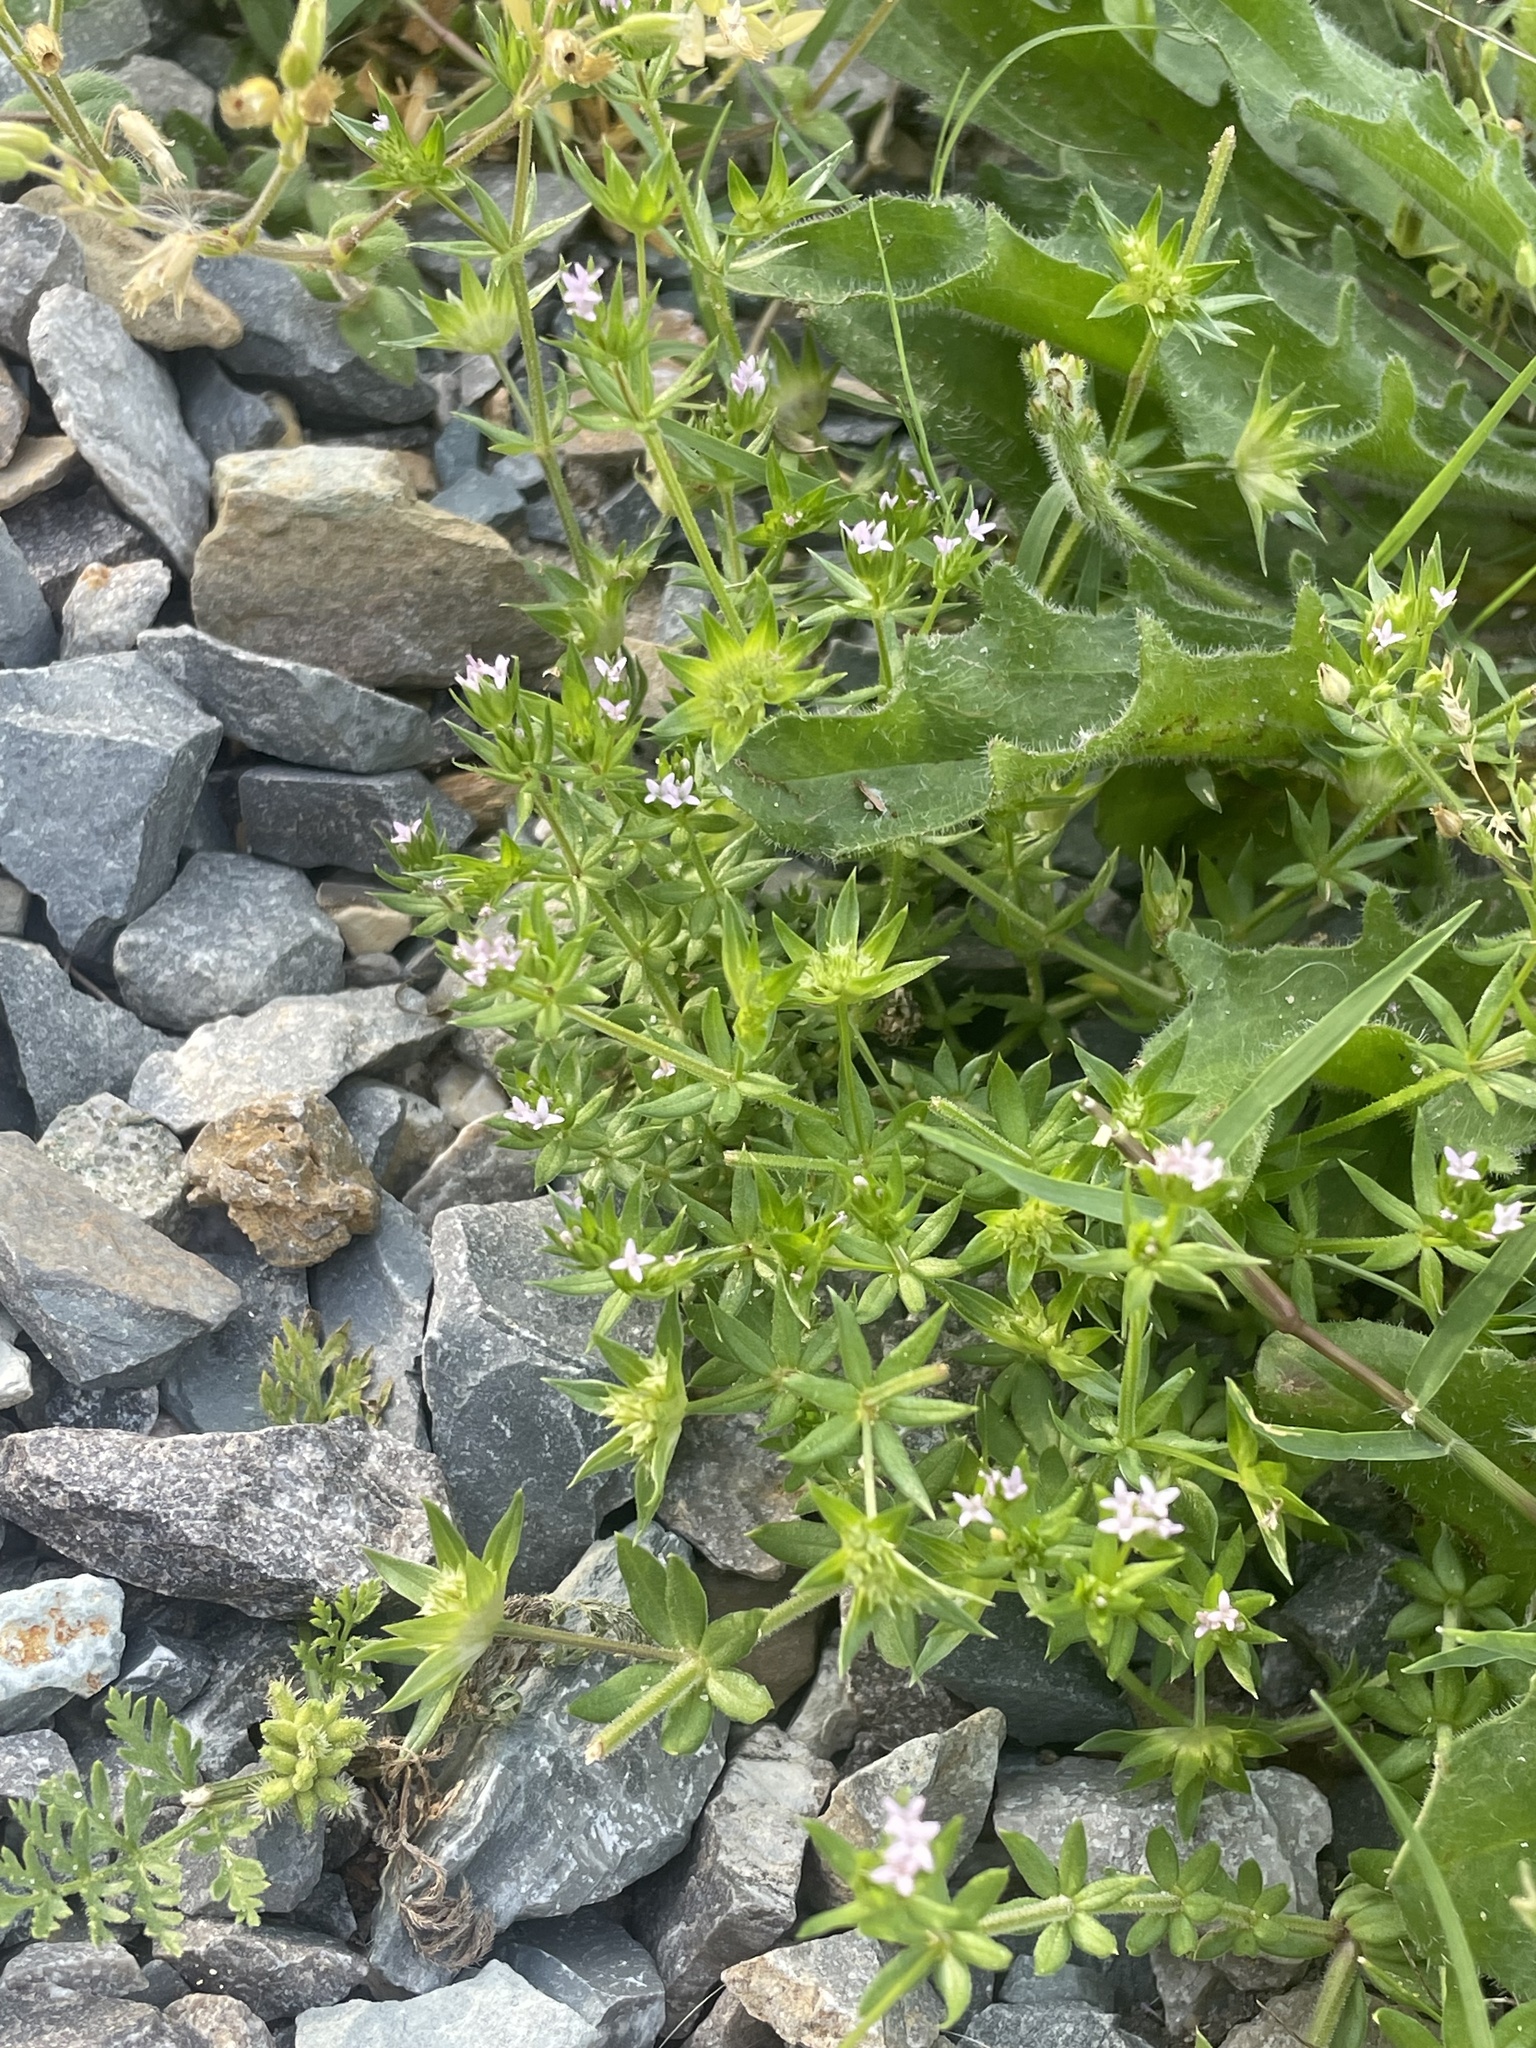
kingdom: Plantae
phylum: Tracheophyta
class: Magnoliopsida
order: Gentianales
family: Rubiaceae
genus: Sherardia
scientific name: Sherardia arvensis
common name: Field madder
